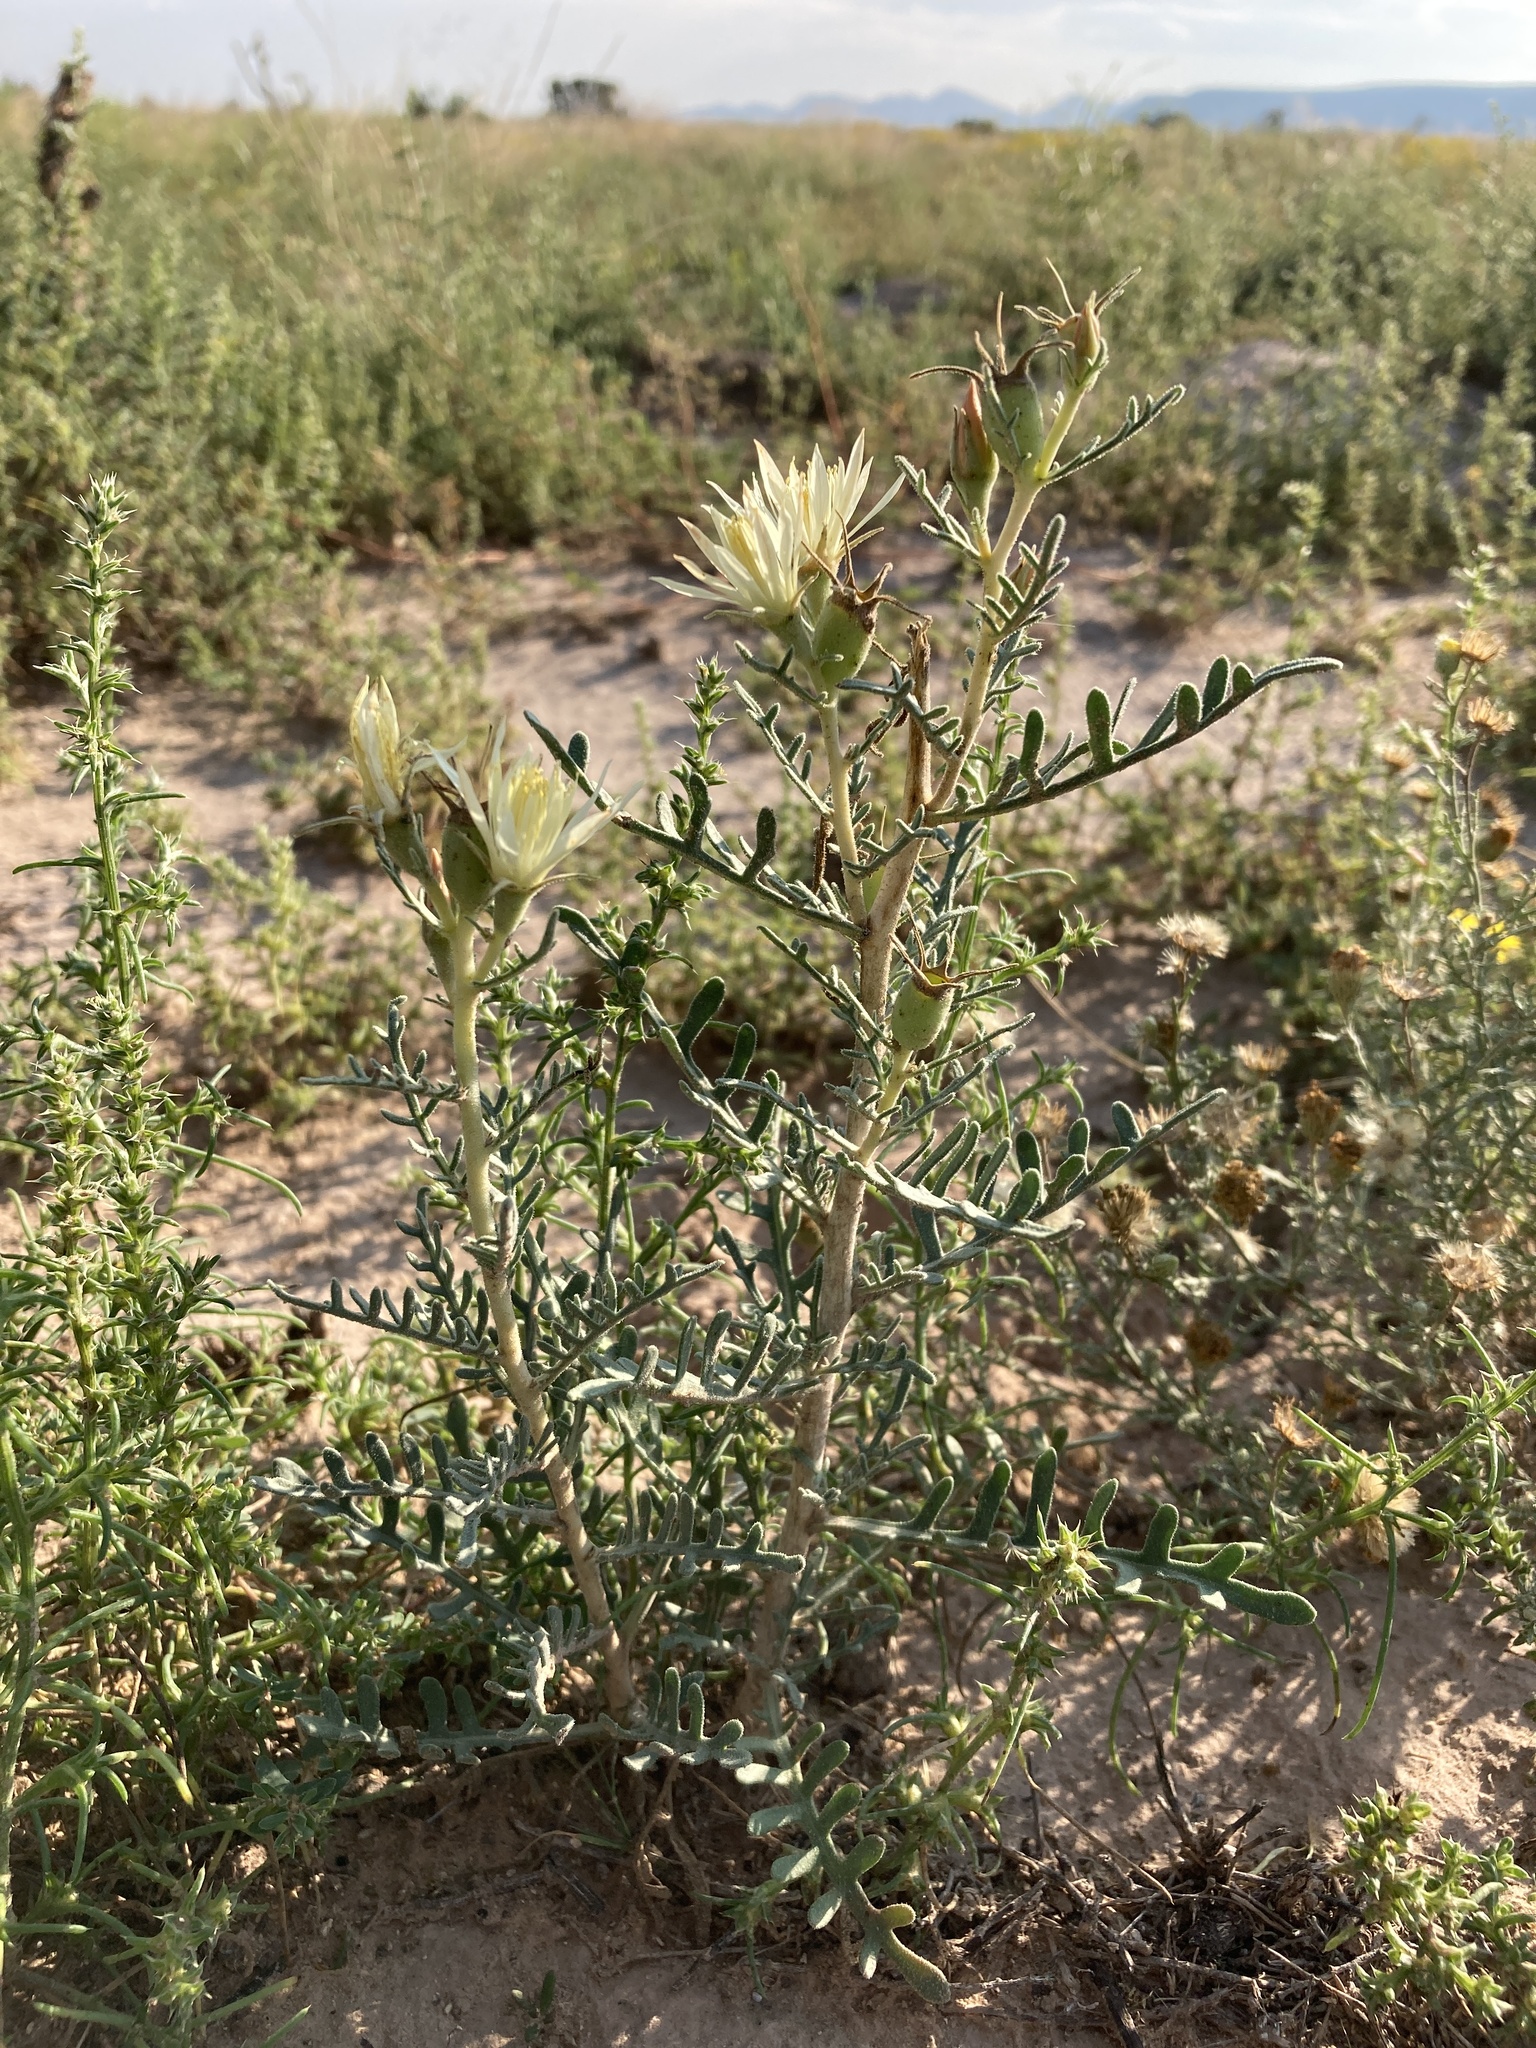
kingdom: Plantae
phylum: Tracheophyta
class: Magnoliopsida
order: Cornales
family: Loasaceae
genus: Mentzelia
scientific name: Mentzelia humilis
